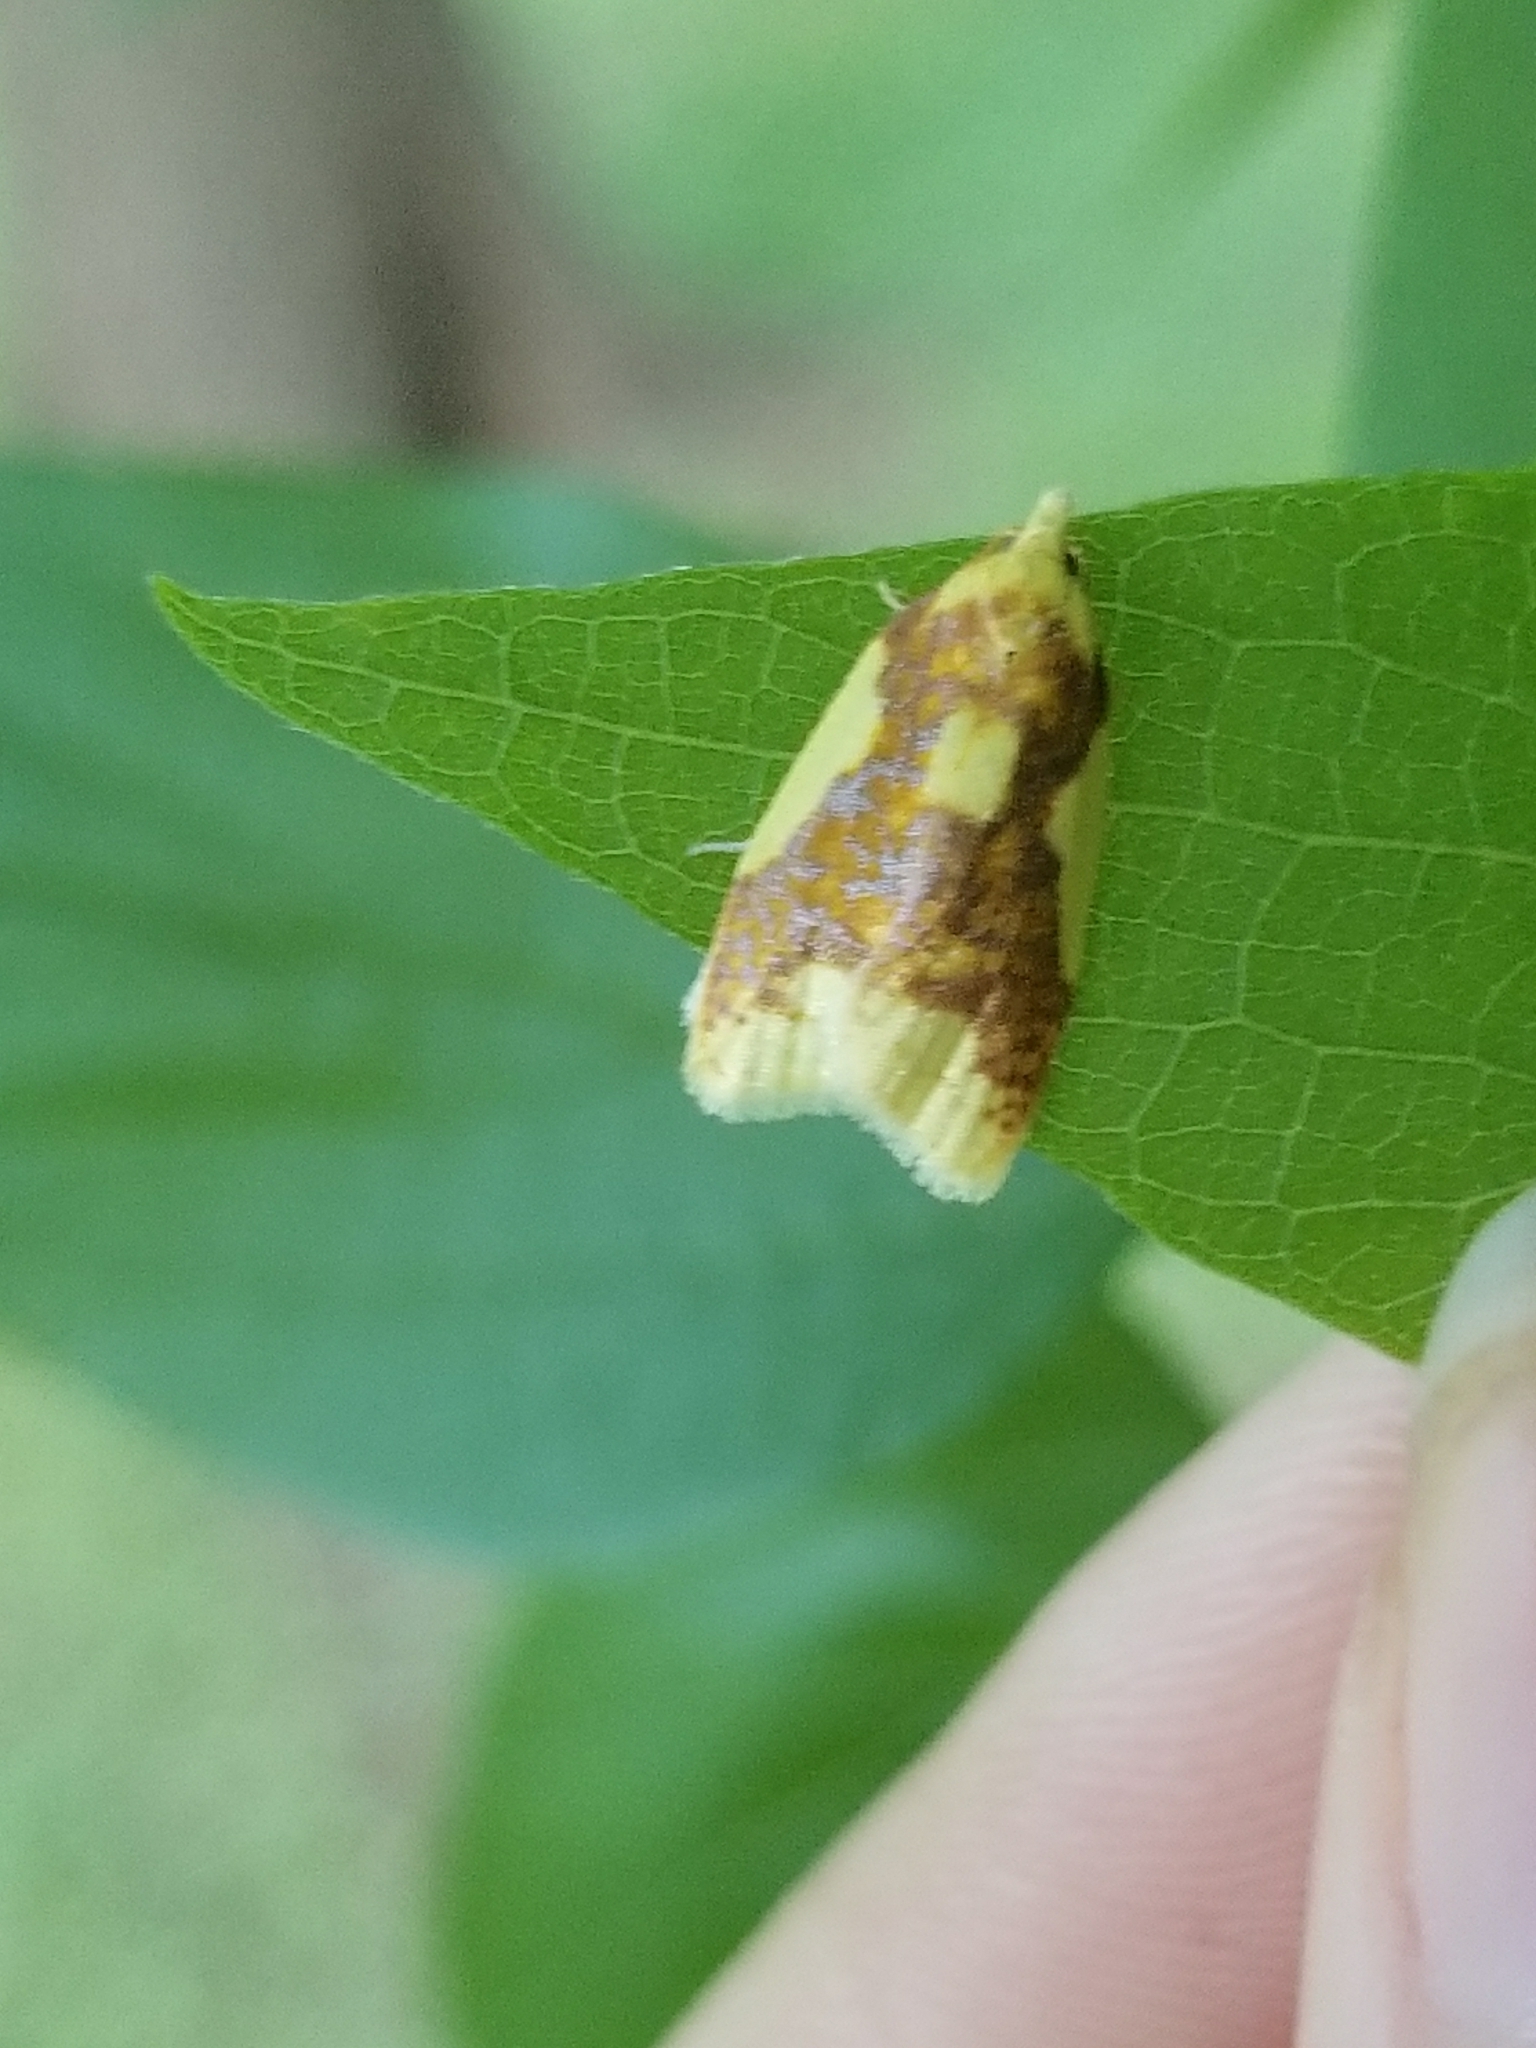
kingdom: Animalia
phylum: Arthropoda
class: Insecta
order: Lepidoptera
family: Tortricidae
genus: Sparganothis
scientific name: Sparganothis pulcherrimana
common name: Beautiful sparganothis
